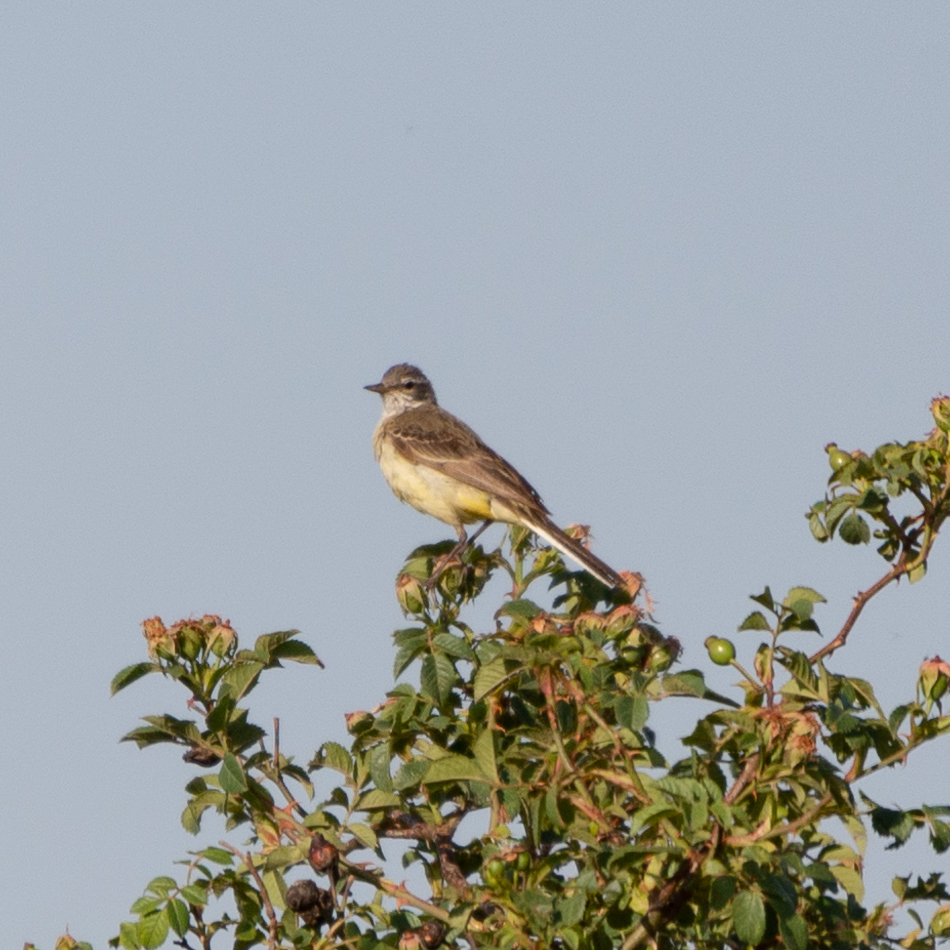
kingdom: Animalia
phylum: Chordata
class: Aves
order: Passeriformes
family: Motacillidae
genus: Motacilla
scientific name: Motacilla flava
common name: Western yellow wagtail
